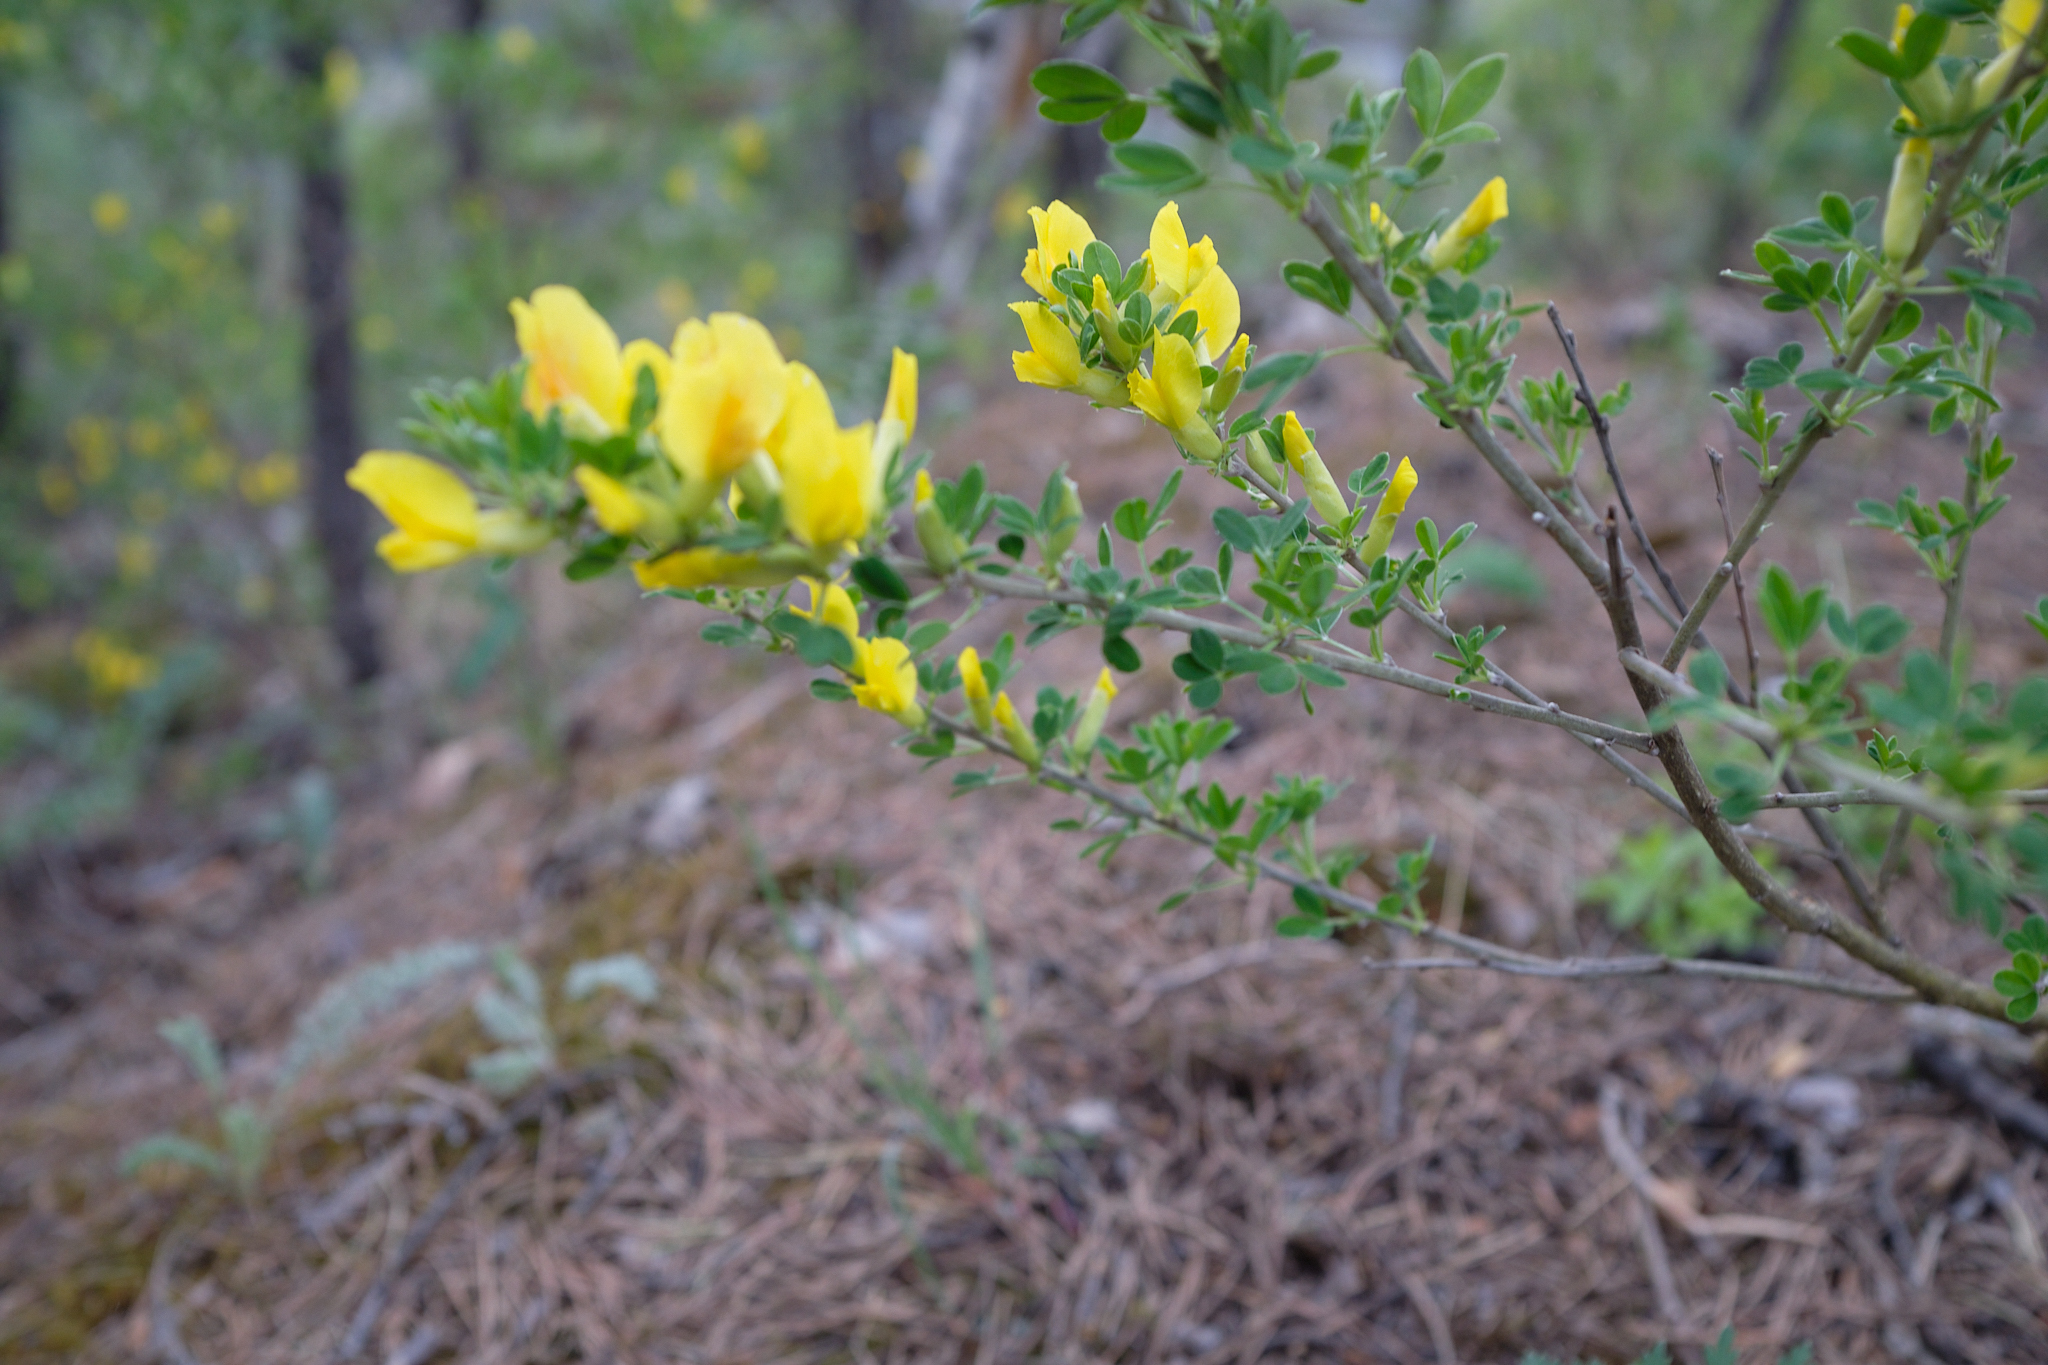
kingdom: Plantae
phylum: Tracheophyta
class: Magnoliopsida
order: Fabales
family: Fabaceae
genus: Chamaecytisus
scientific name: Chamaecytisus ruthenicus
